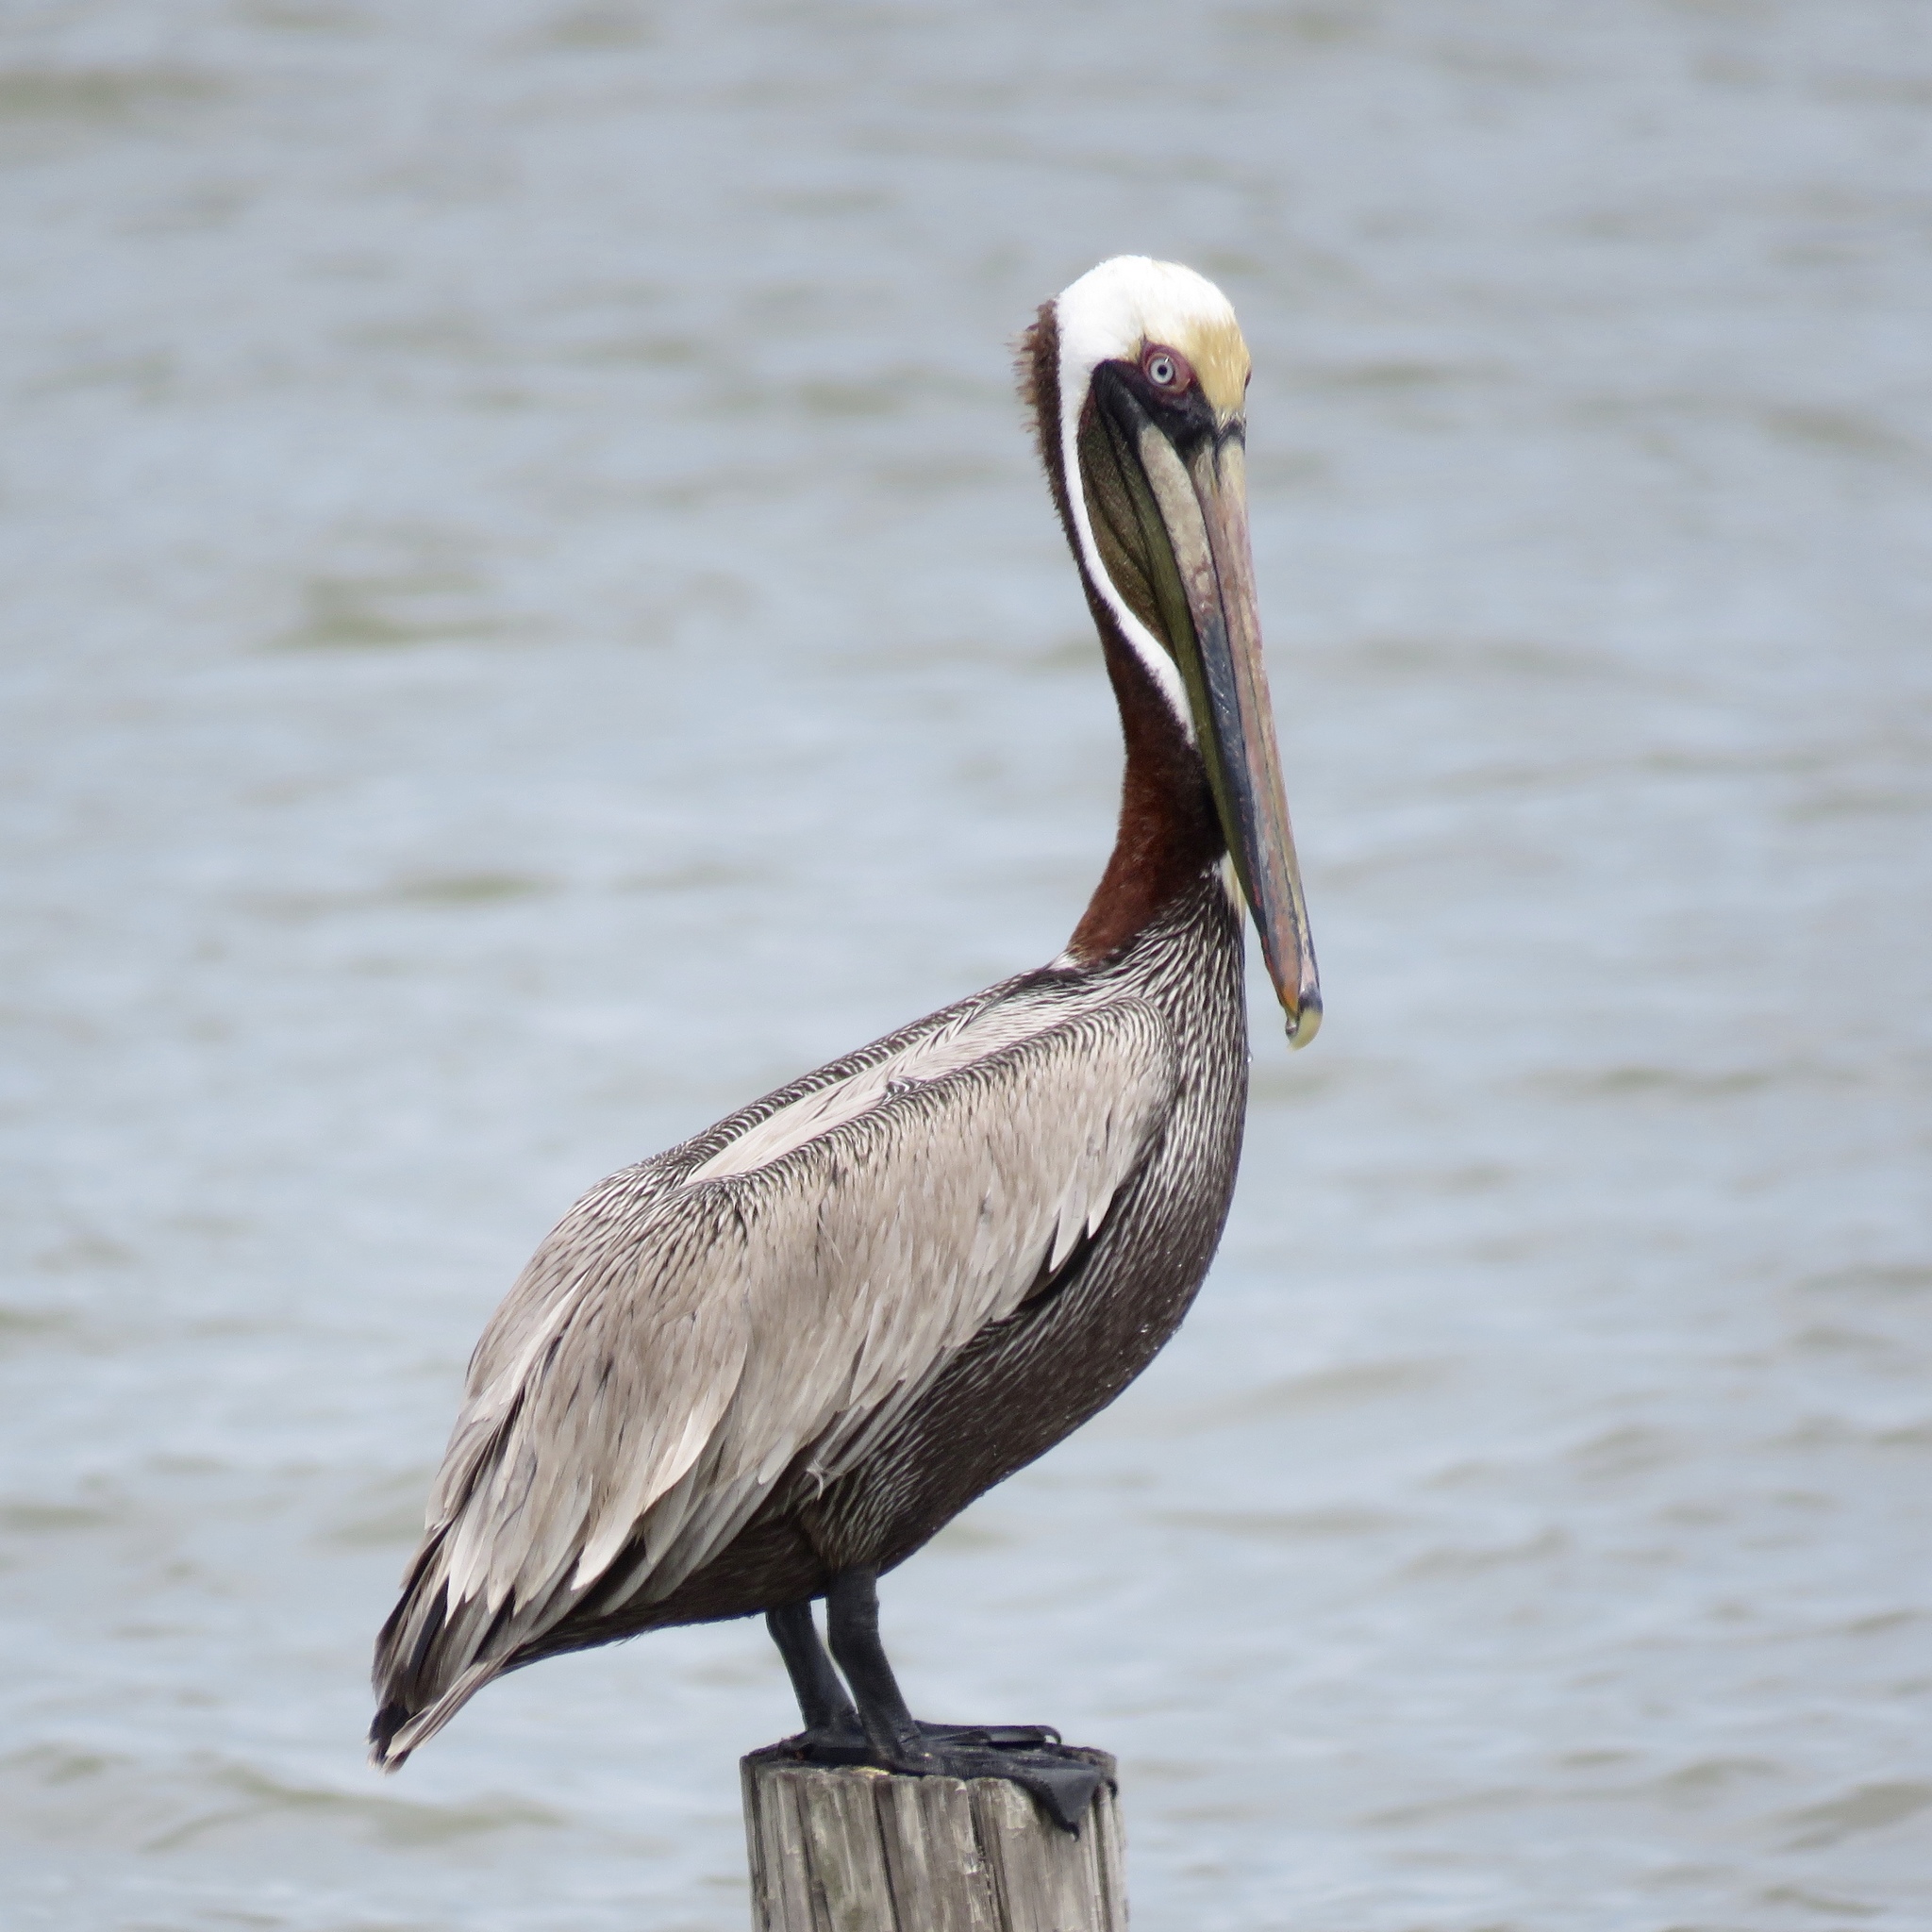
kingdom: Animalia
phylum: Chordata
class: Aves
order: Pelecaniformes
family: Pelecanidae
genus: Pelecanus
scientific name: Pelecanus occidentalis
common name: Brown pelican
